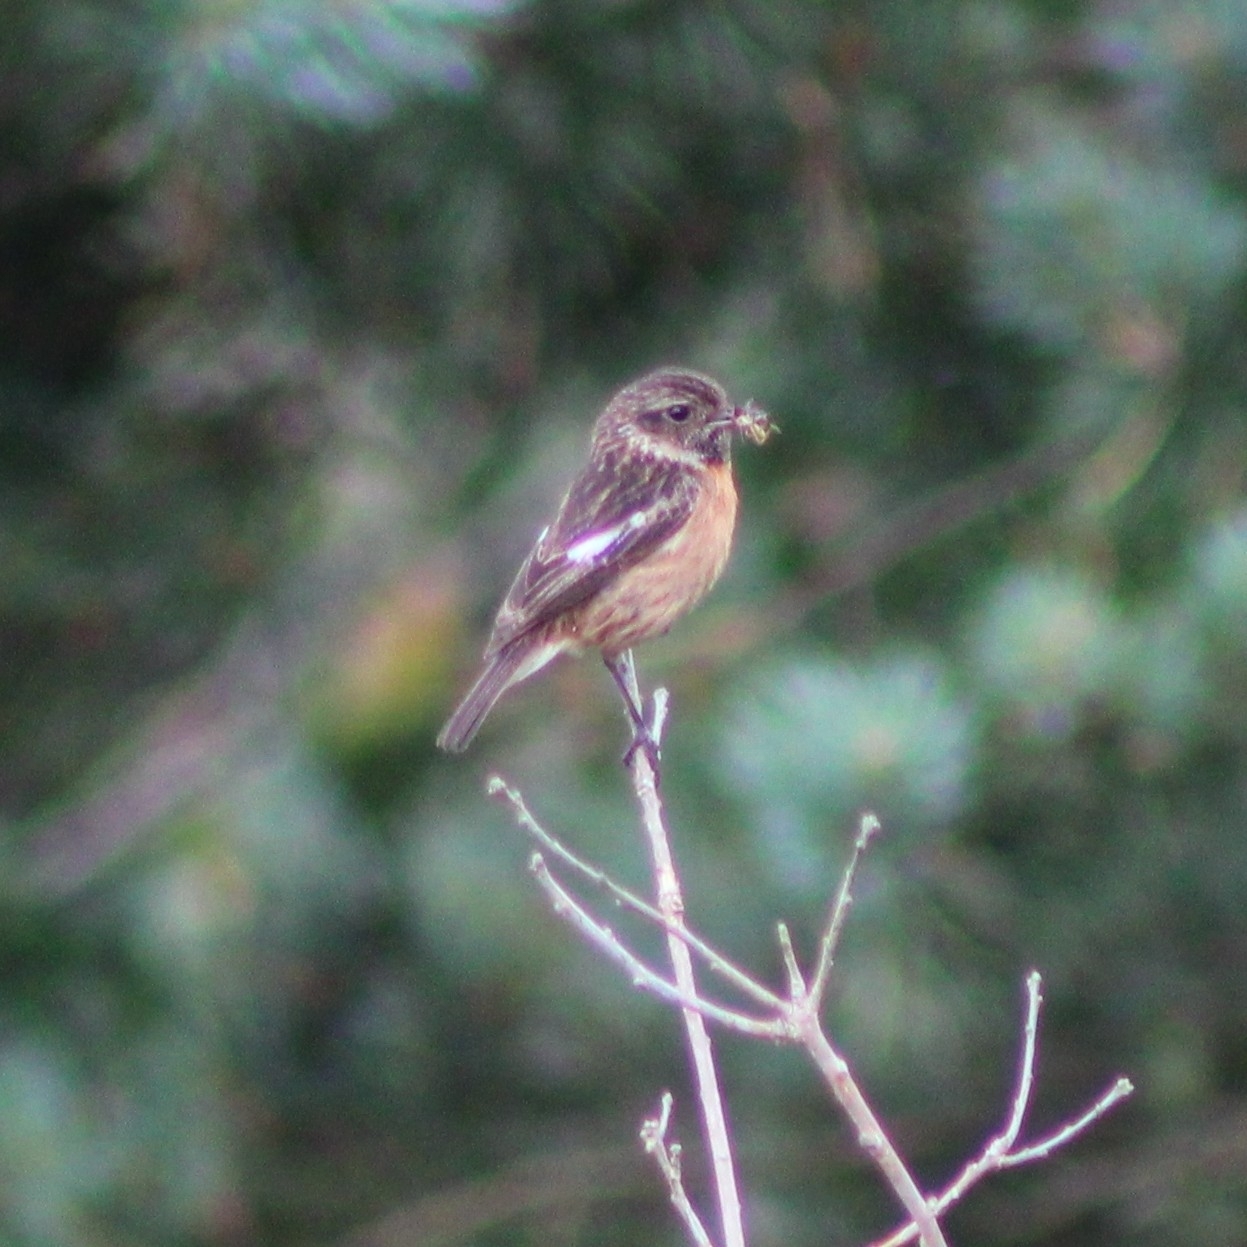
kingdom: Animalia
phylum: Chordata
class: Aves
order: Passeriformes
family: Muscicapidae
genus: Saxicola
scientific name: Saxicola rubicola
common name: European stonechat
